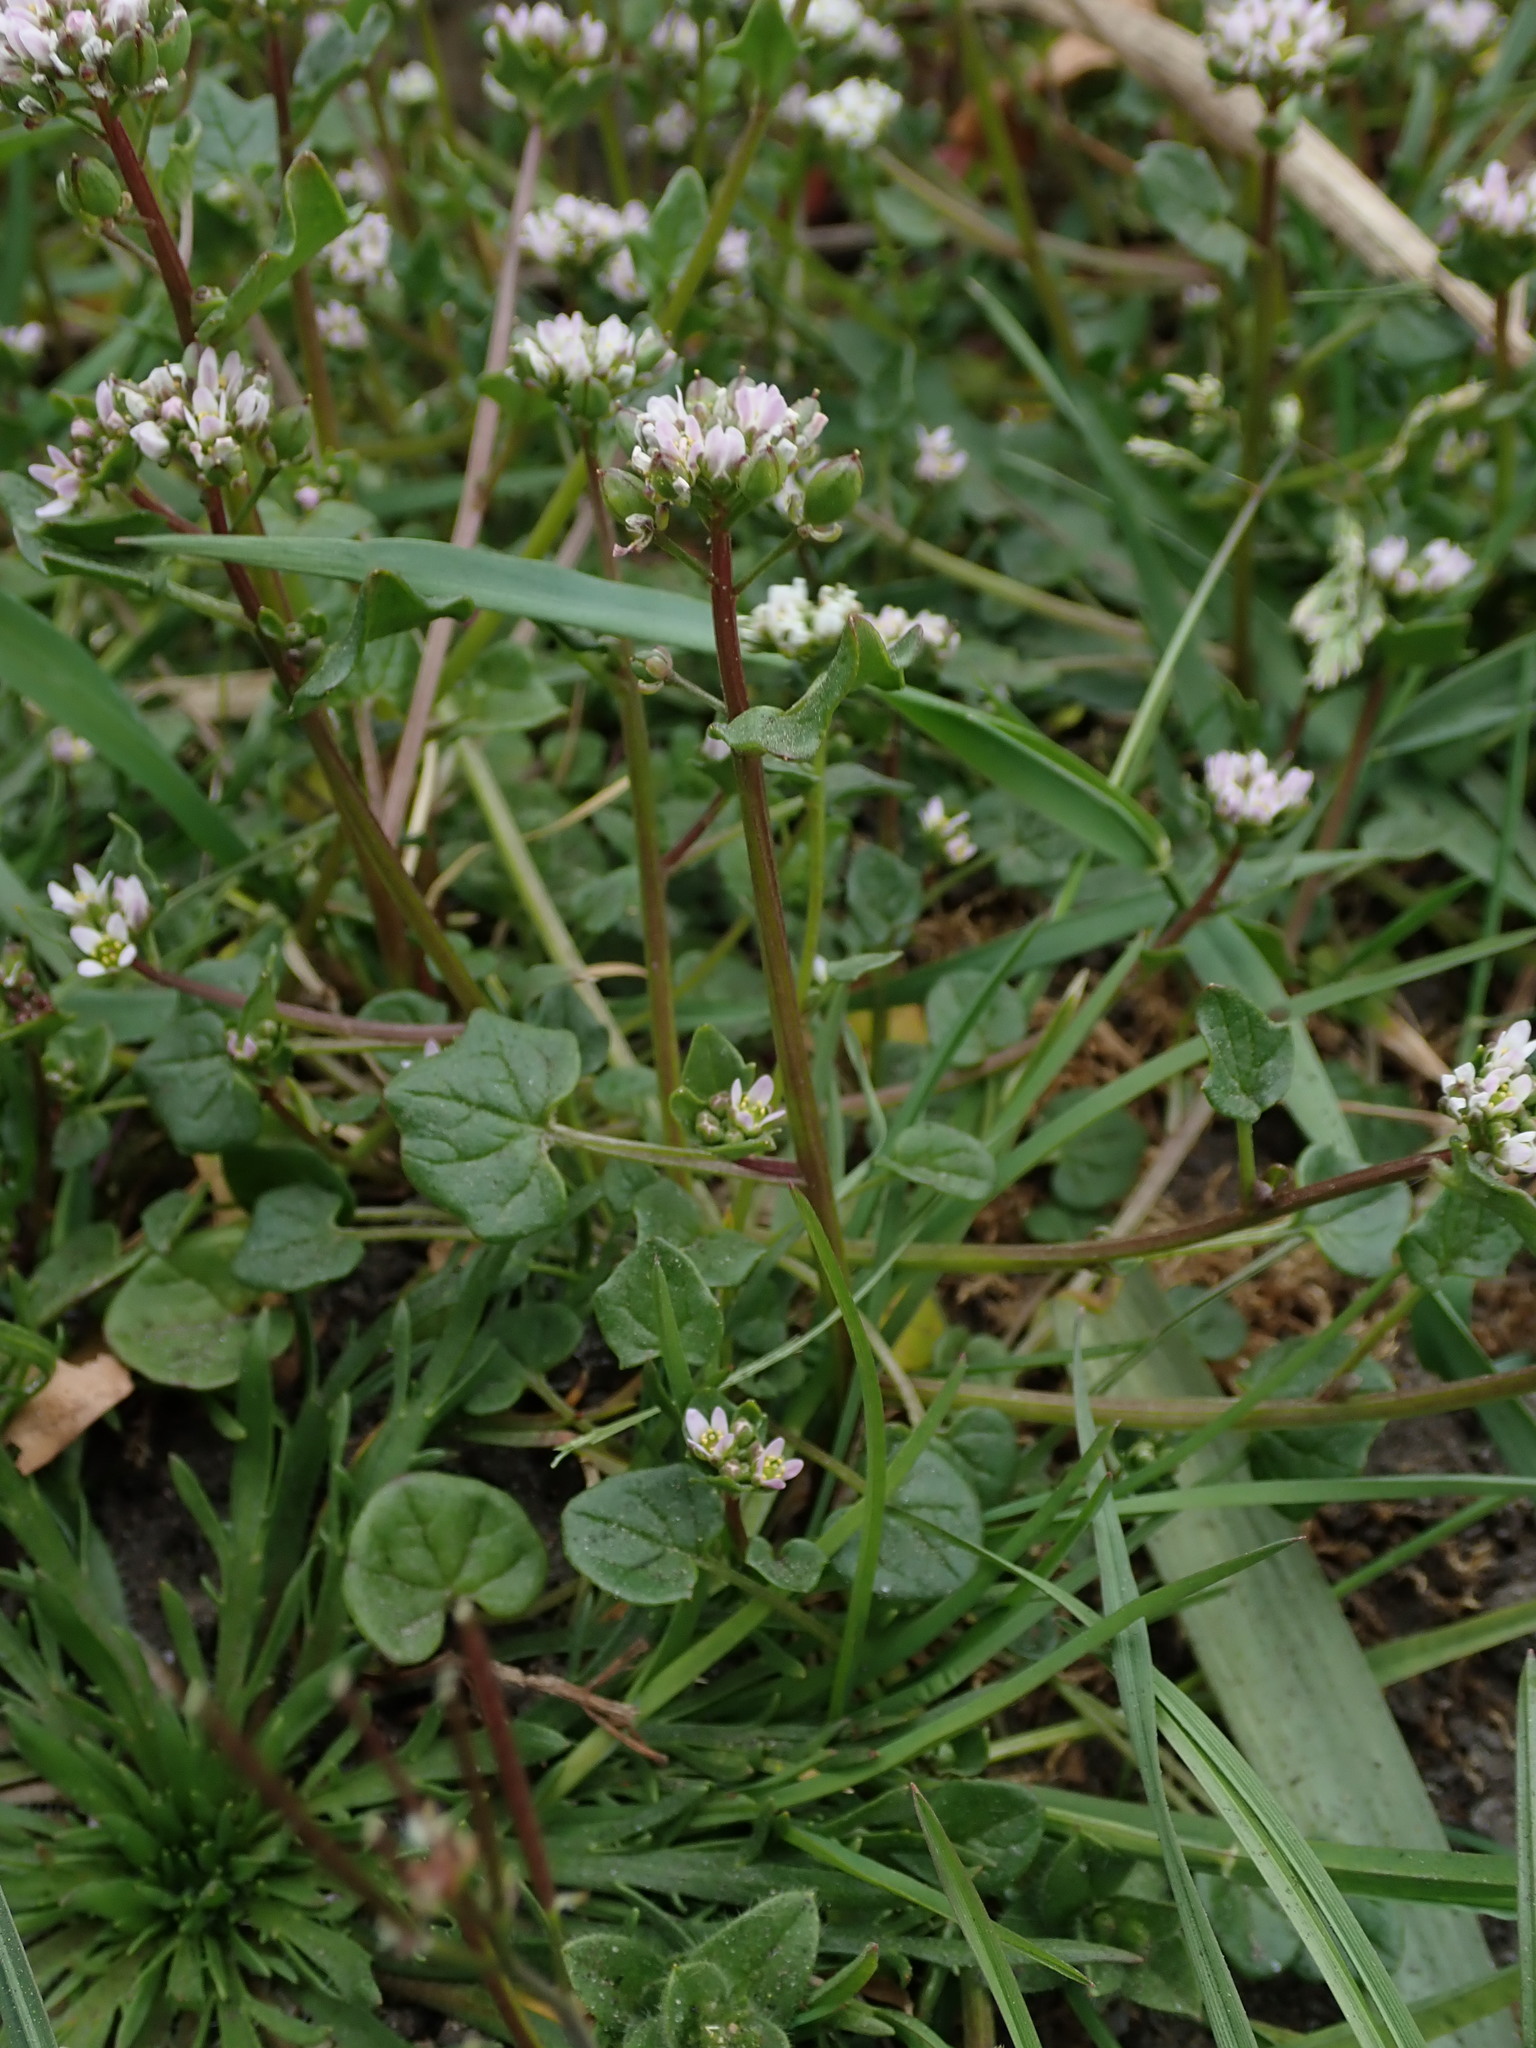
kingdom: Plantae
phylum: Tracheophyta
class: Magnoliopsida
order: Brassicales
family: Brassicaceae
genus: Cochlearia
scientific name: Cochlearia danica
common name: Early scurvygrass
